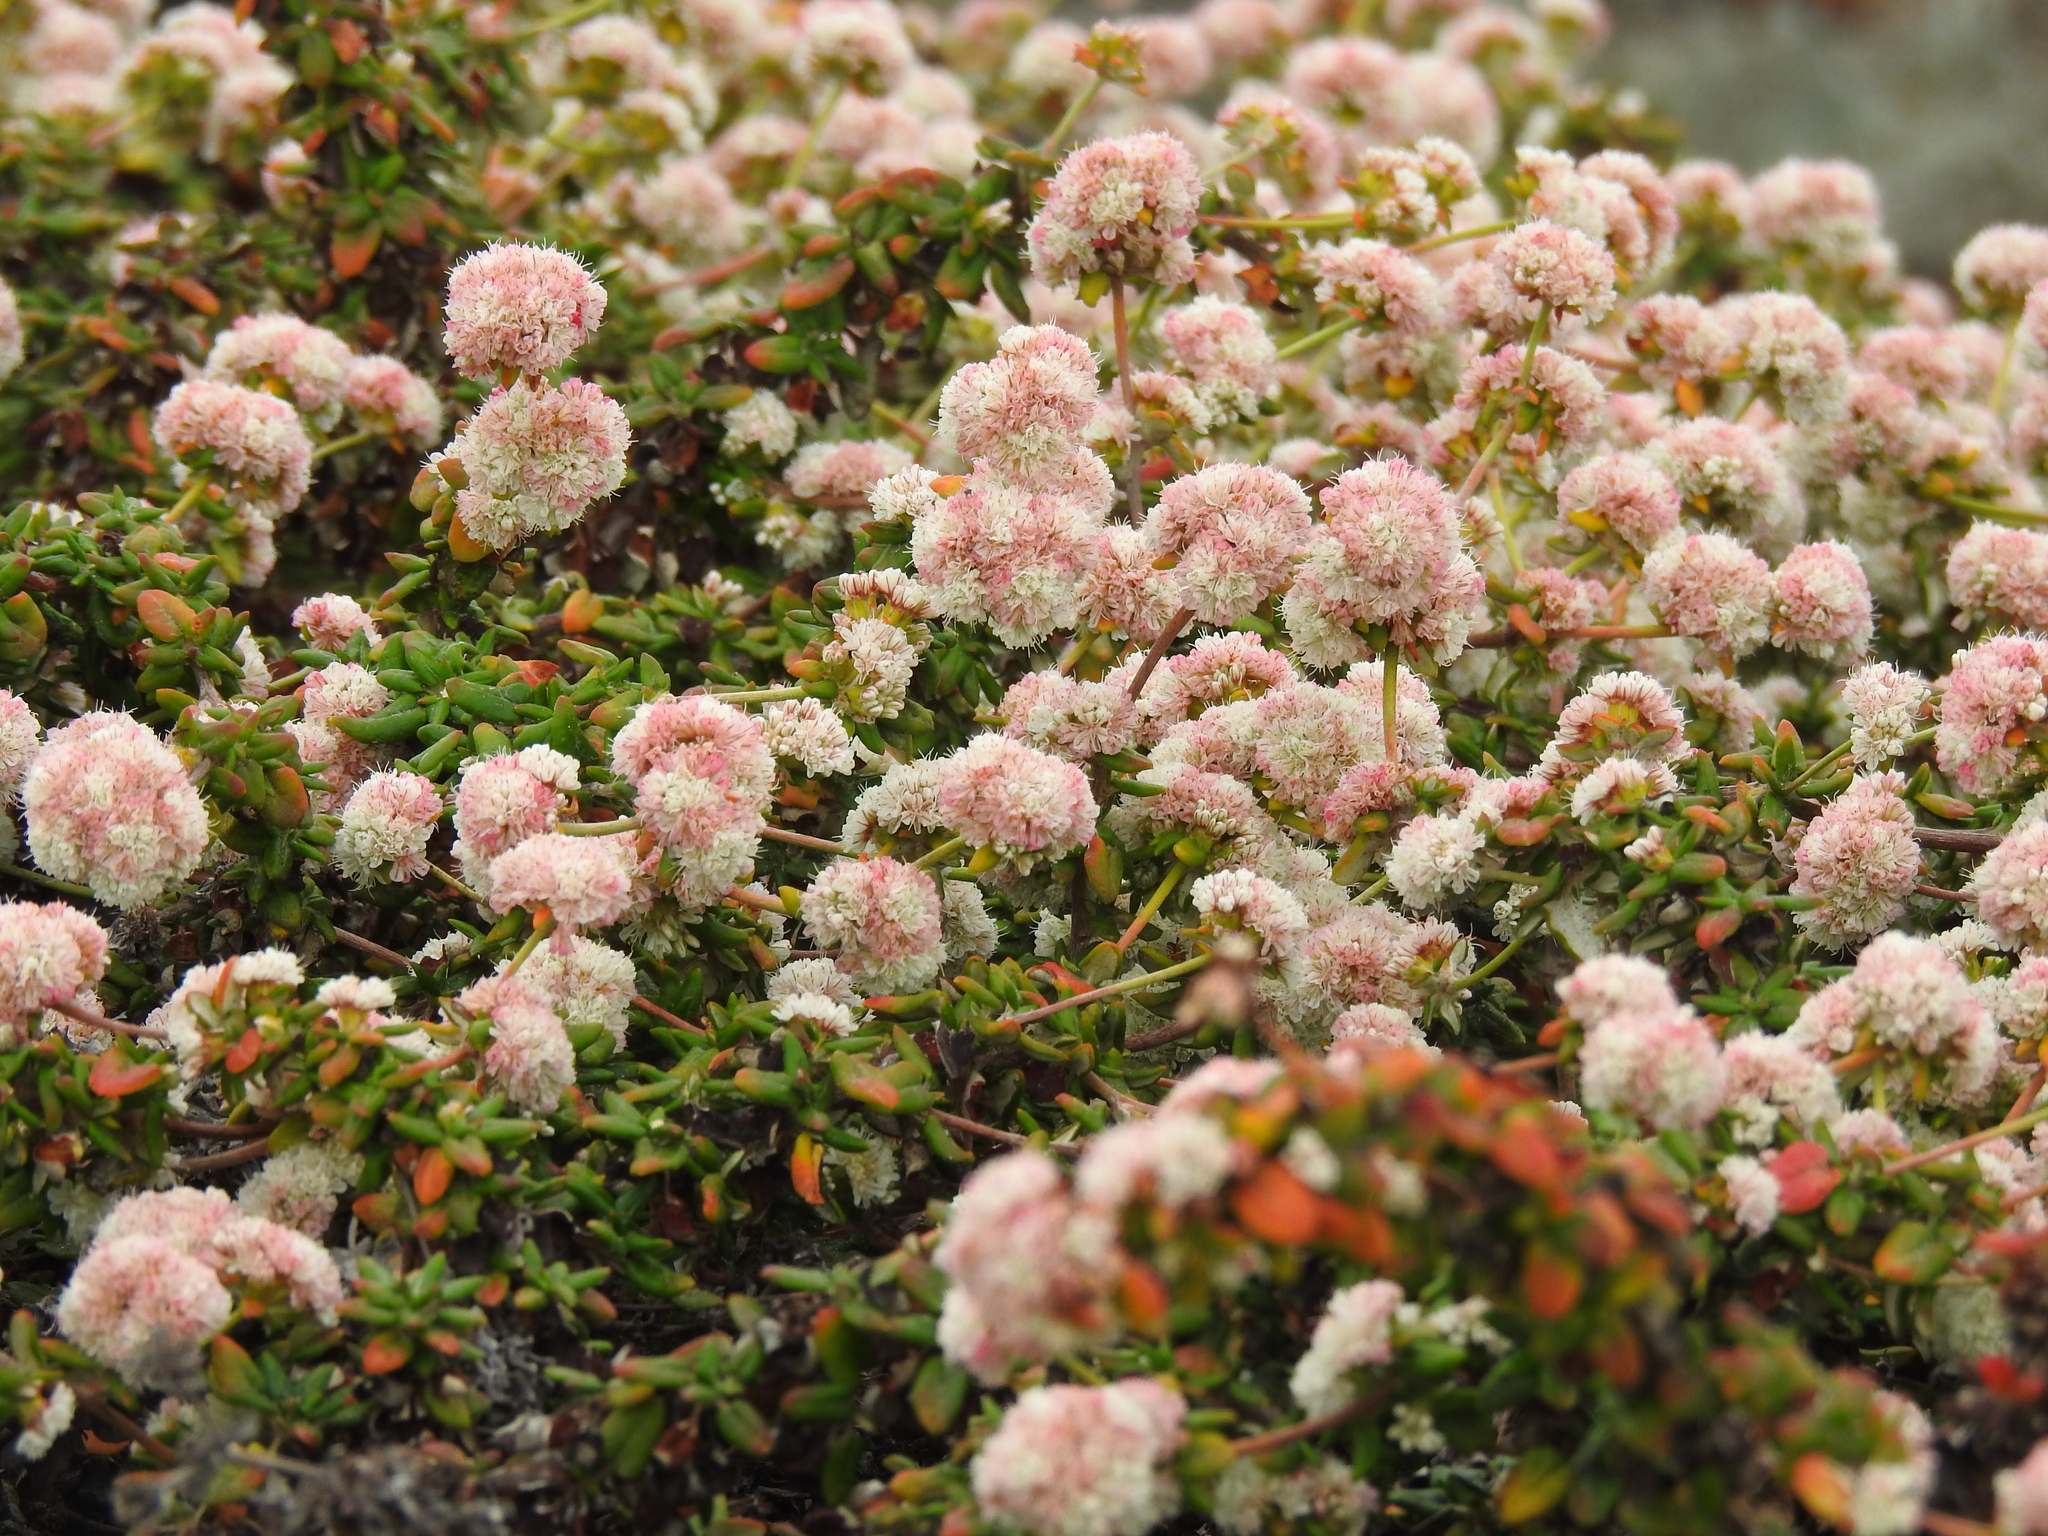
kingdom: Plantae
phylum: Tracheophyta
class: Magnoliopsida
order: Caryophyllales
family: Polygonaceae
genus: Eriogonum
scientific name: Eriogonum parvifolium
